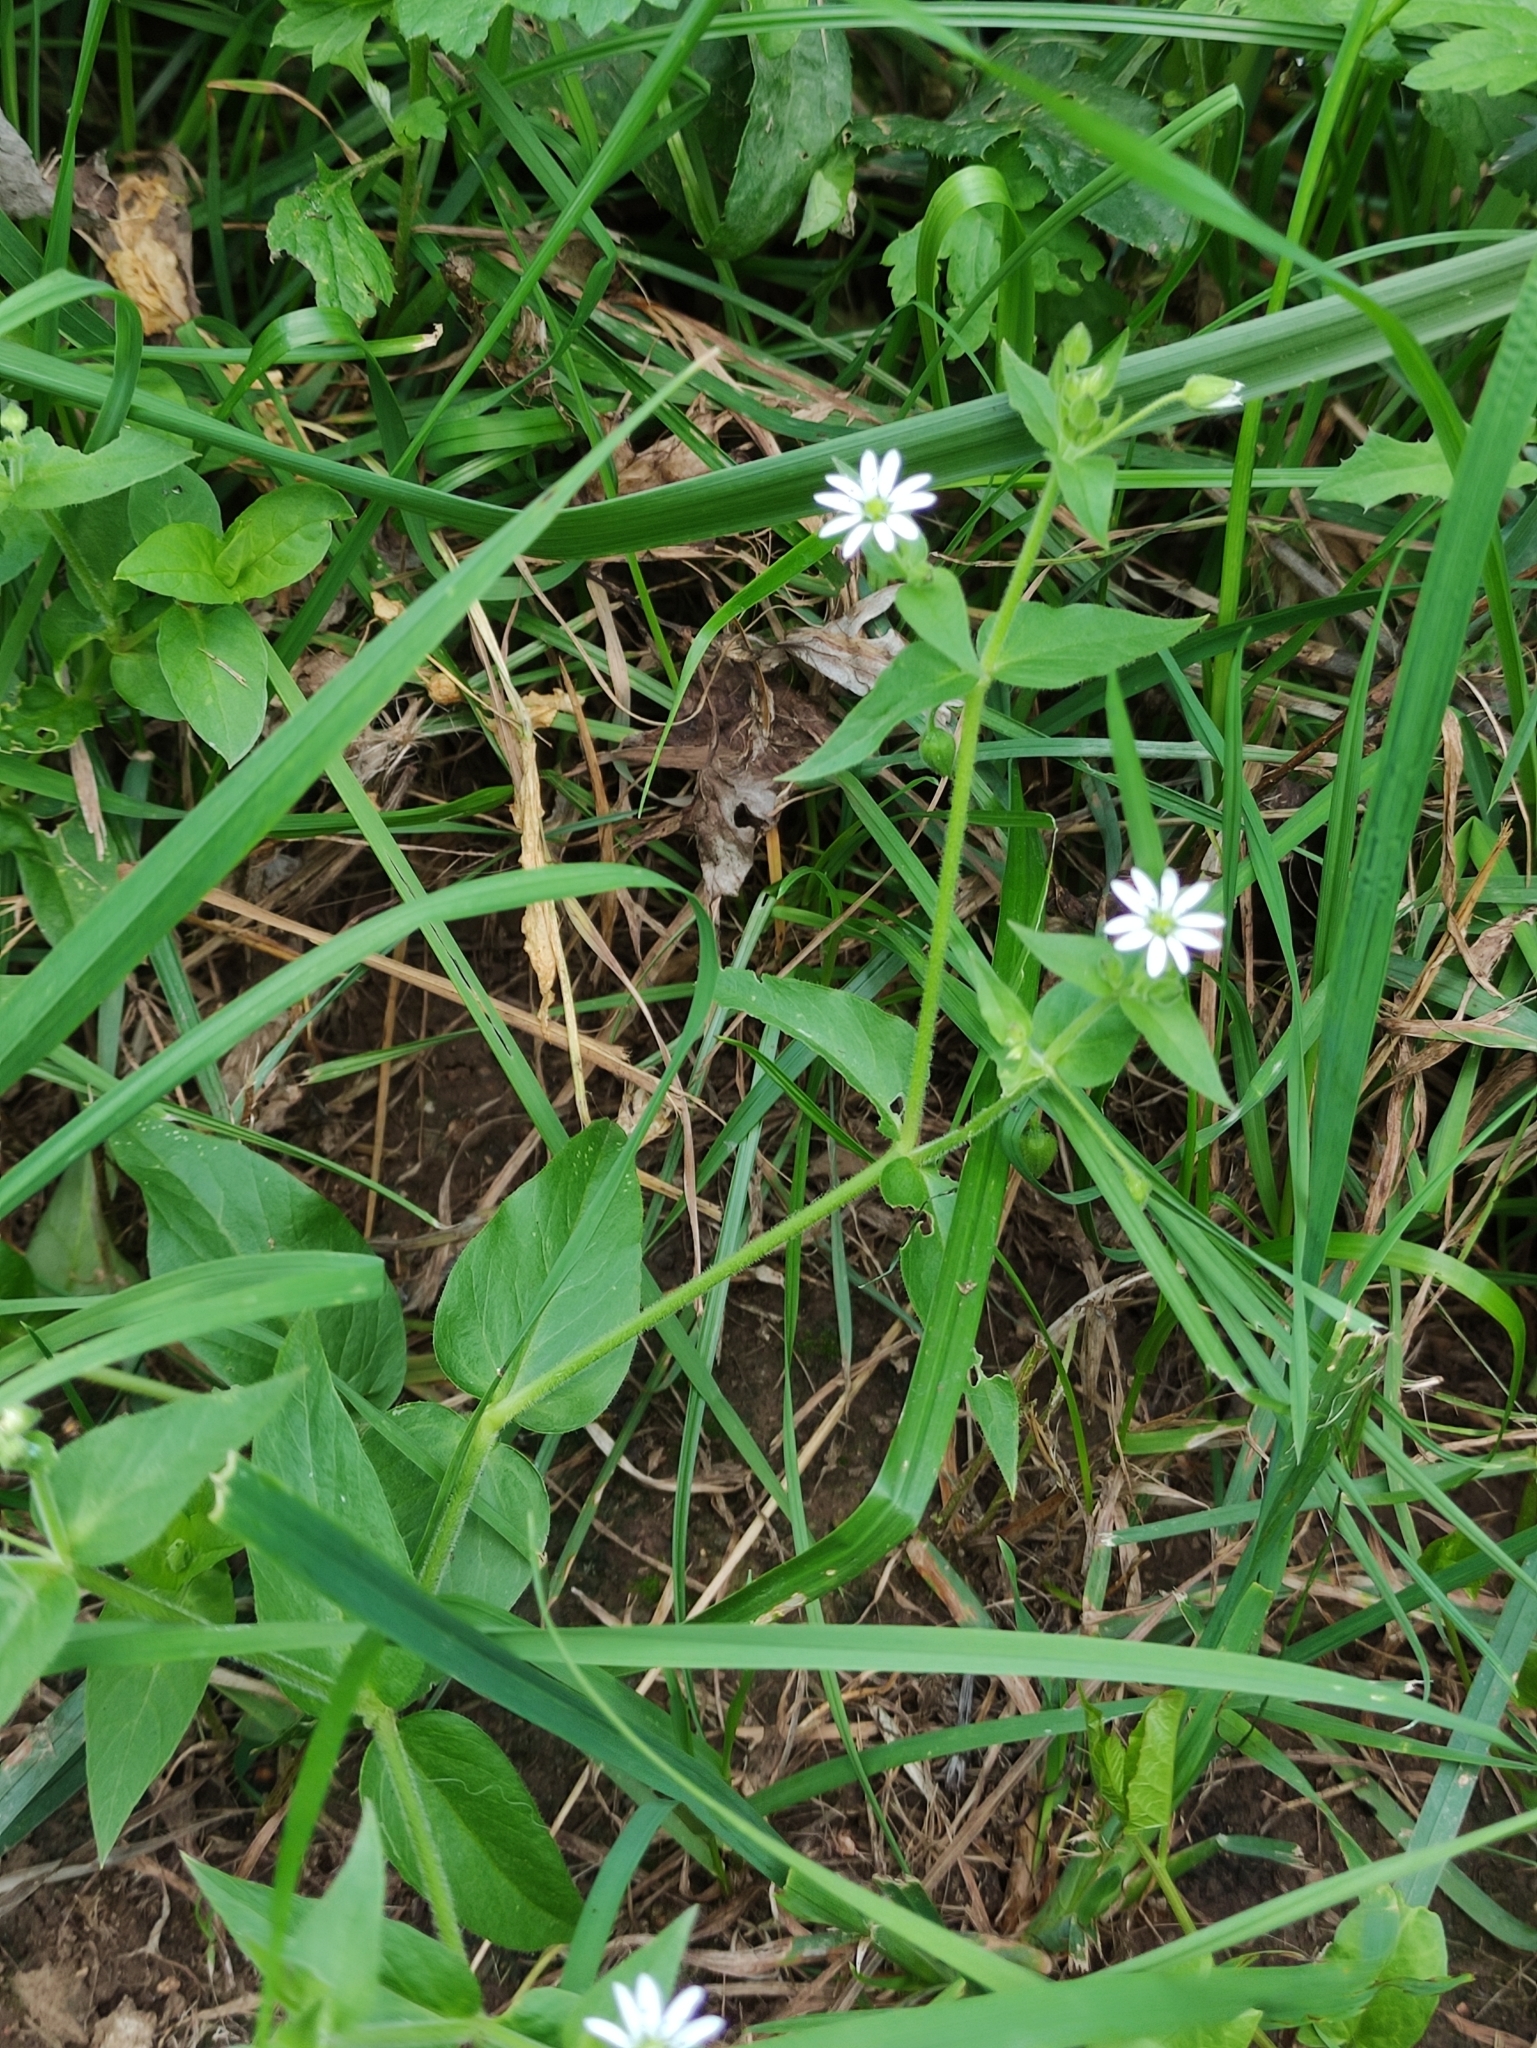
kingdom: Plantae
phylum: Tracheophyta
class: Magnoliopsida
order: Caryophyllales
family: Caryophyllaceae
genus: Stellaria
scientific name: Stellaria aquatica
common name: Water chickweed
